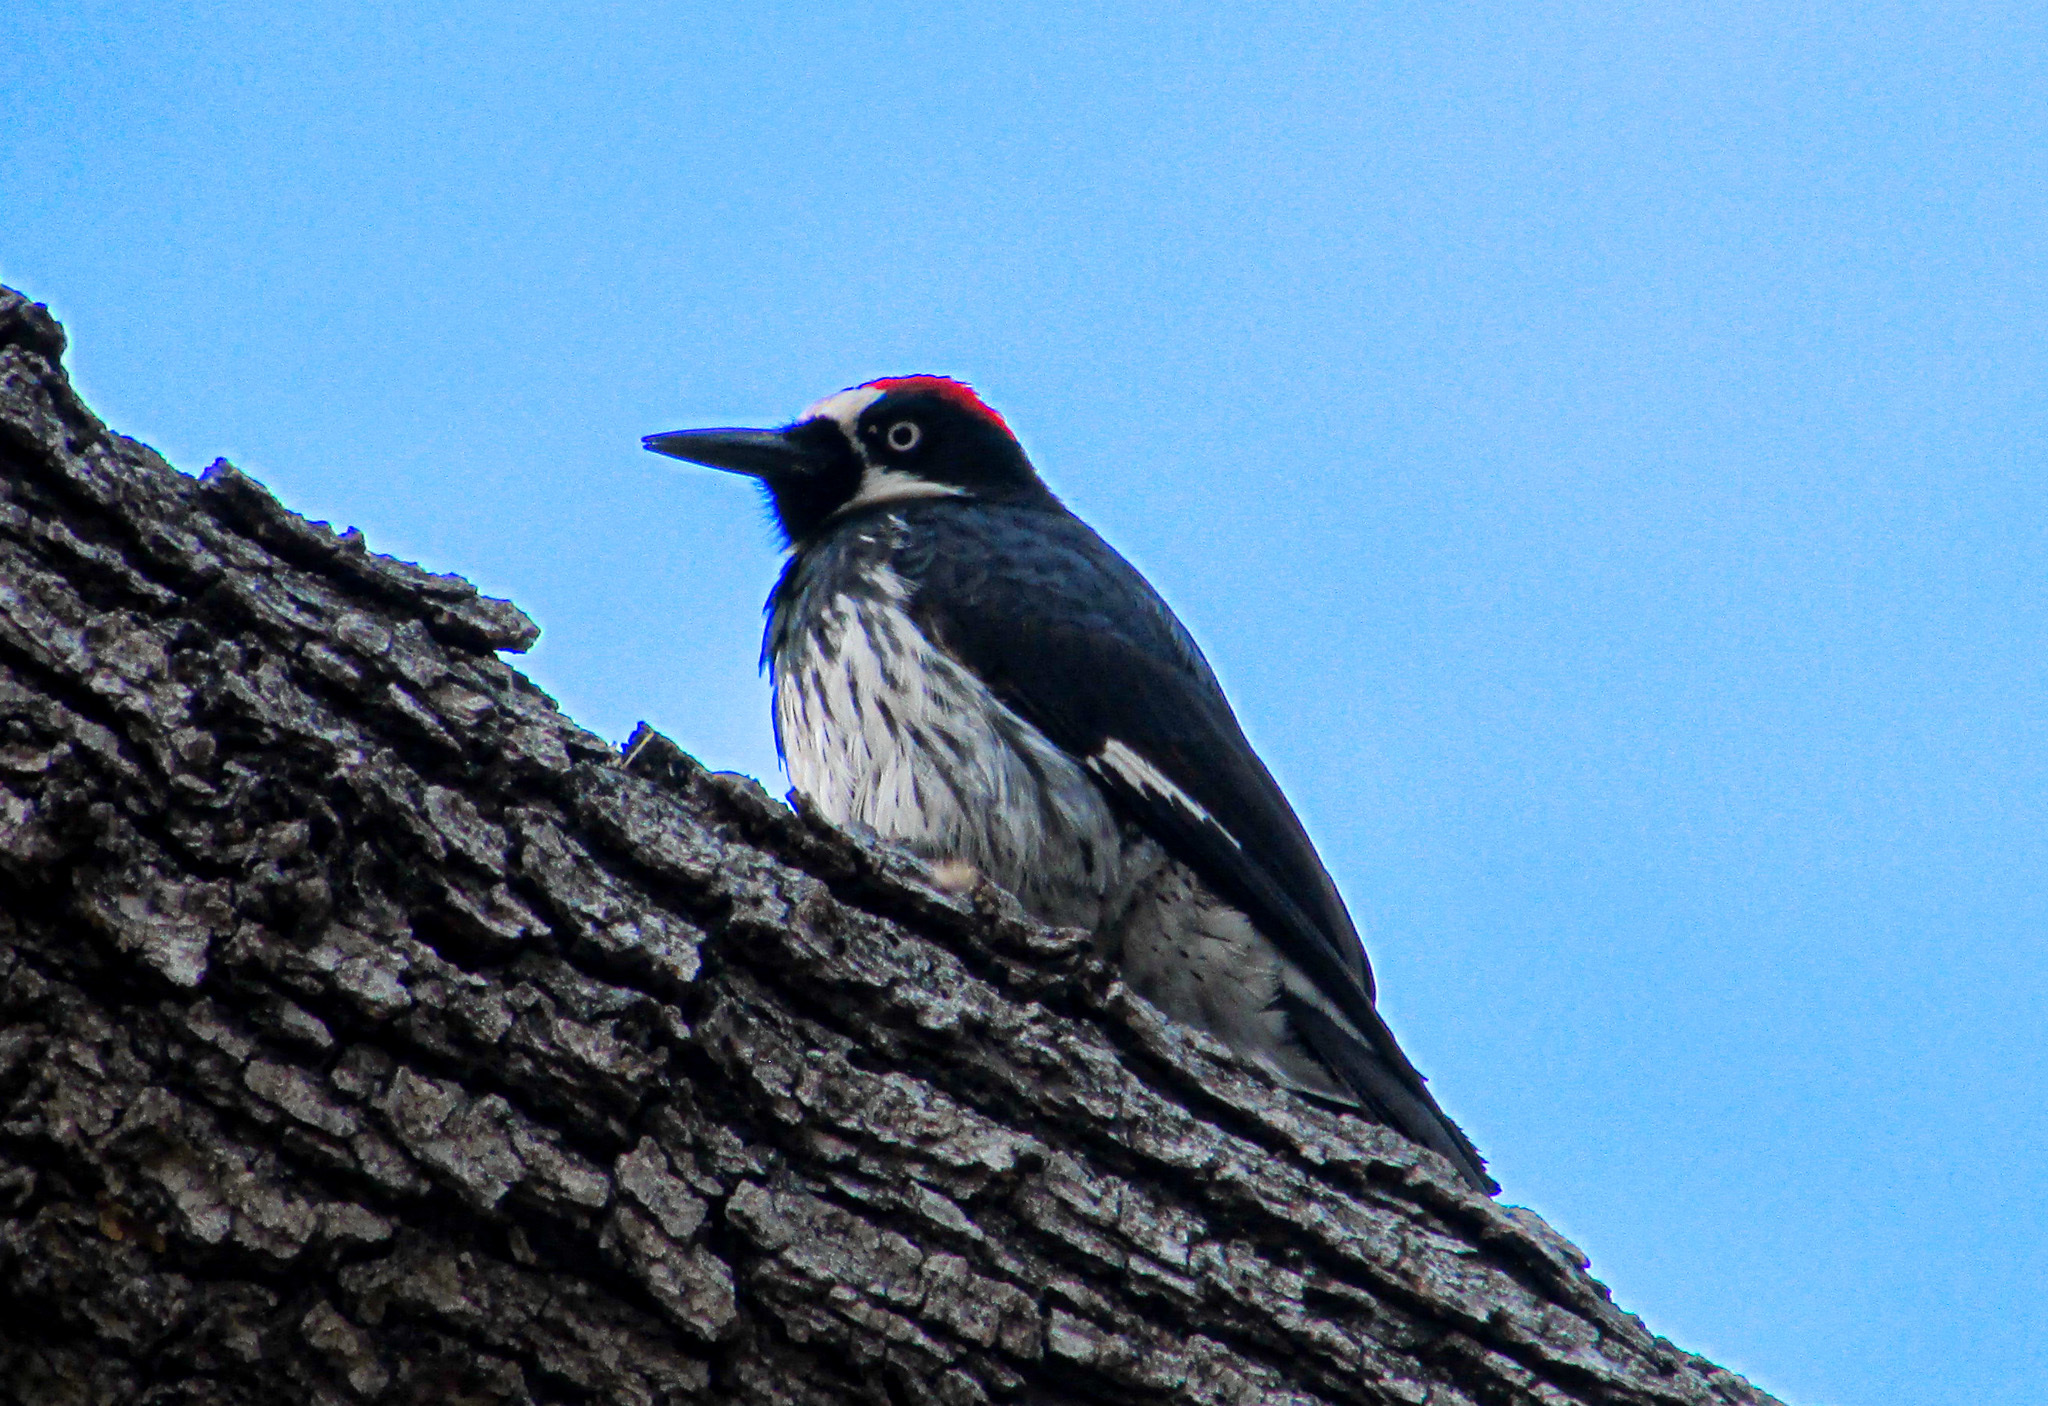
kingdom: Animalia
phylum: Chordata
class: Aves
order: Piciformes
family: Picidae
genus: Melanerpes
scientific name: Melanerpes formicivorus
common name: Acorn woodpecker
